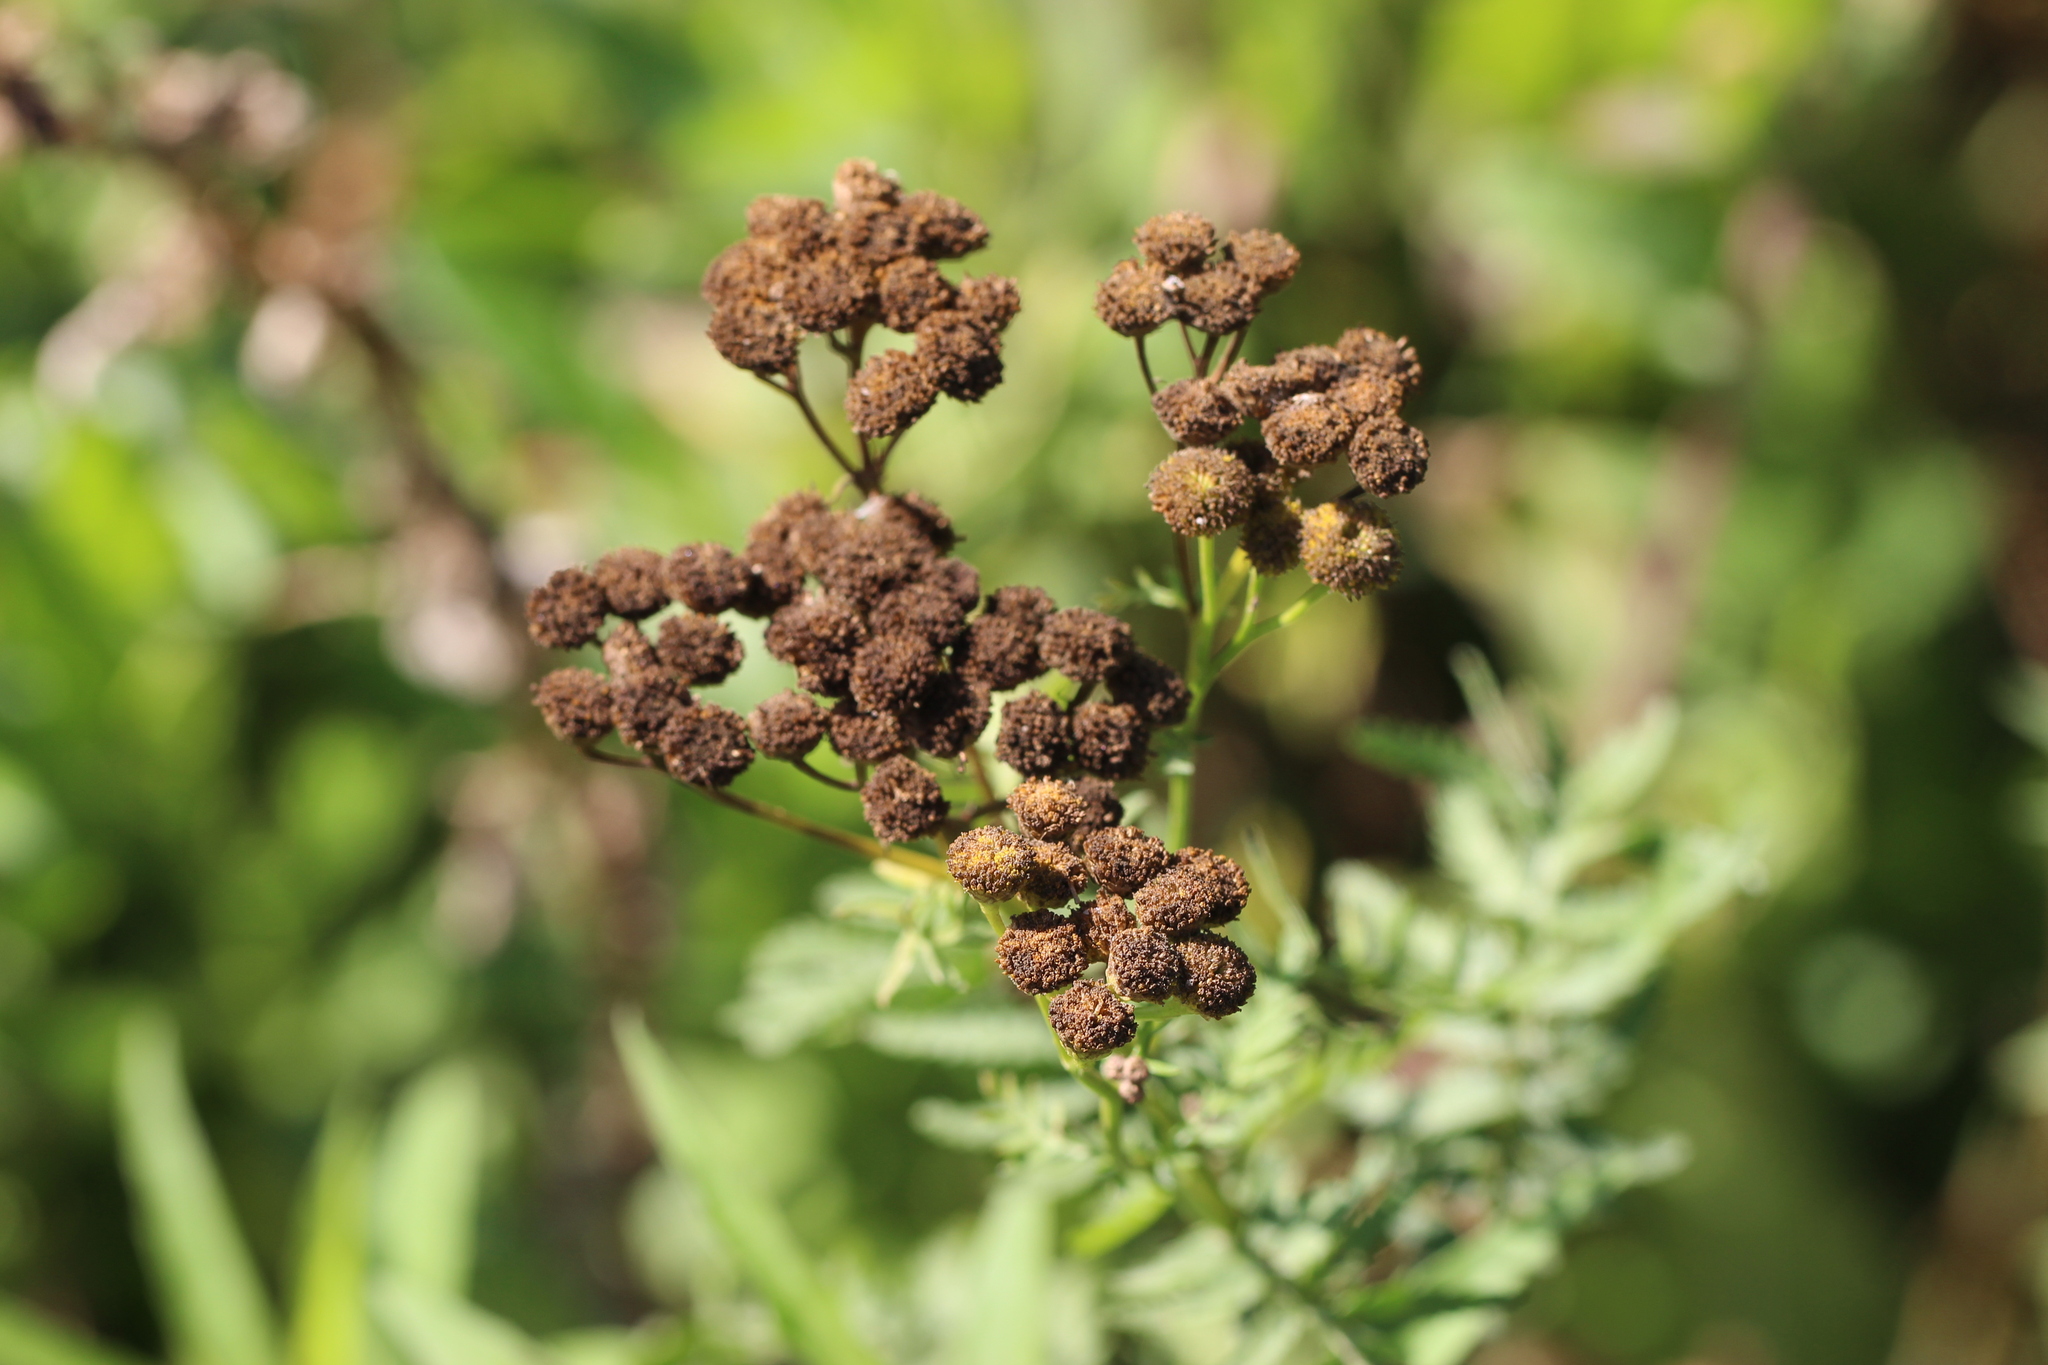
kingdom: Plantae
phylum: Tracheophyta
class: Magnoliopsida
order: Asterales
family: Asteraceae
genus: Tanacetum
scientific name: Tanacetum vulgare
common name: Common tansy
